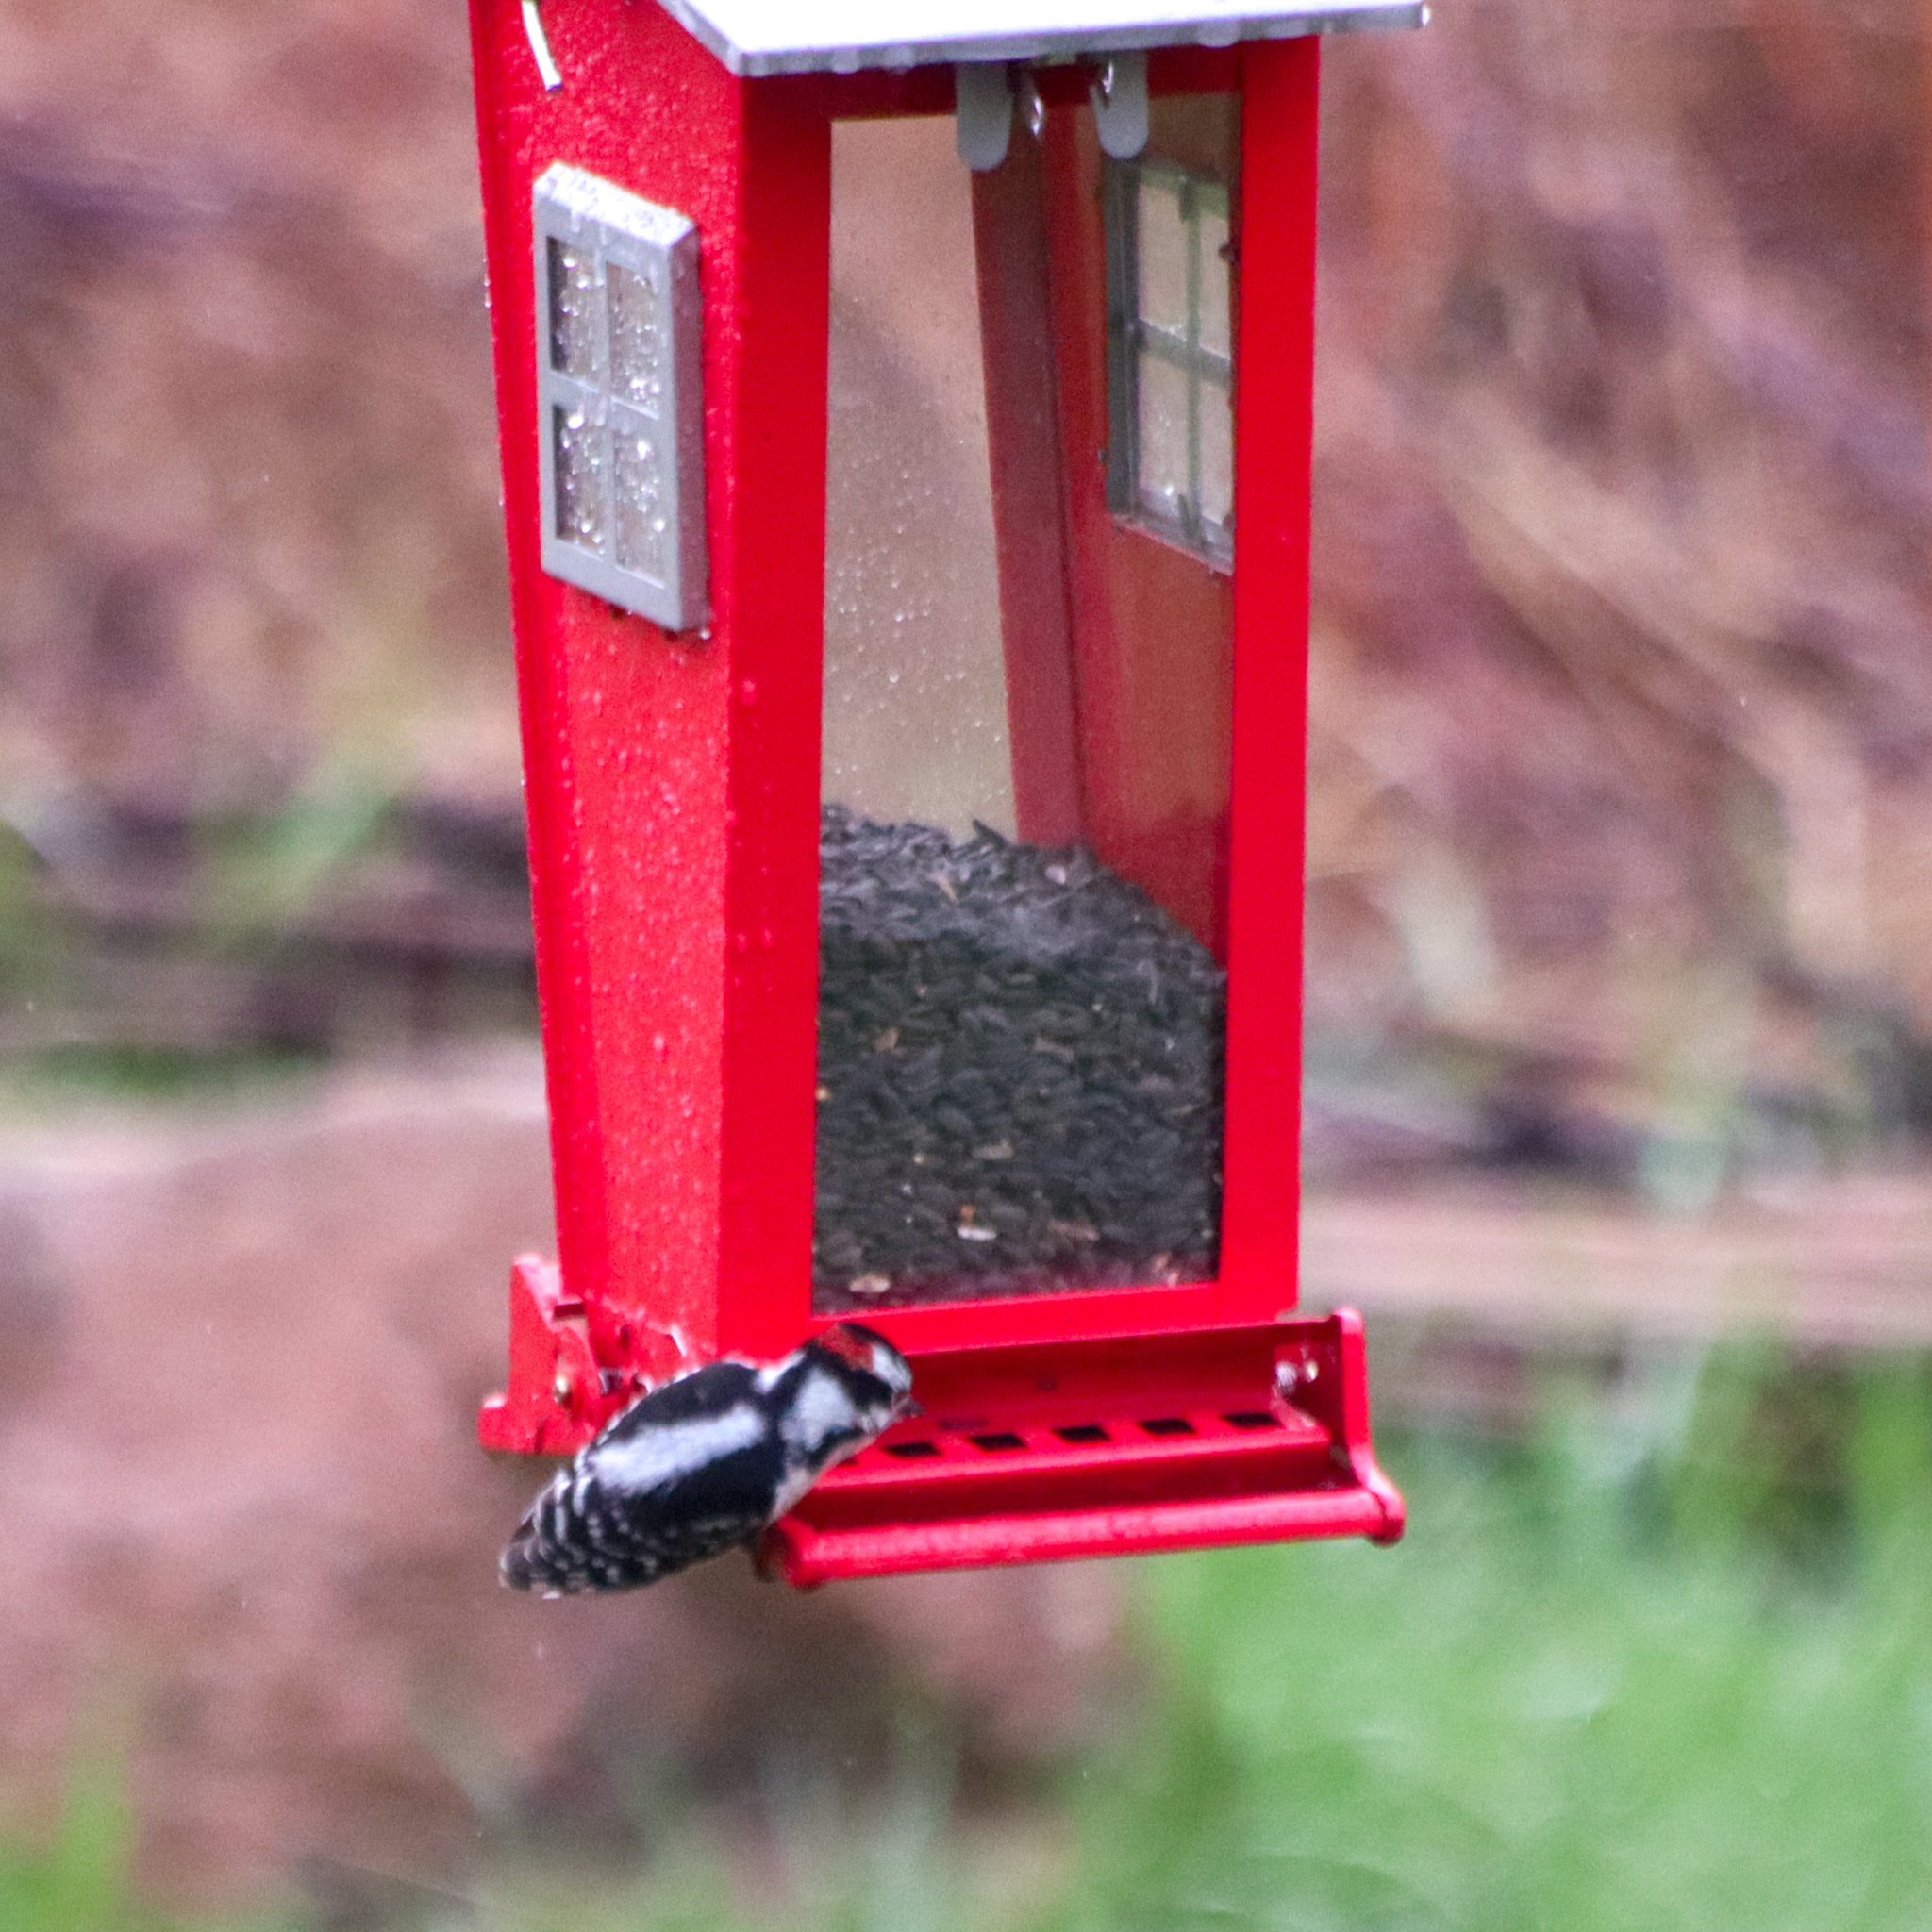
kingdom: Animalia
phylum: Chordata
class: Aves
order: Piciformes
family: Picidae
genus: Dryobates
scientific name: Dryobates pubescens
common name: Downy woodpecker
